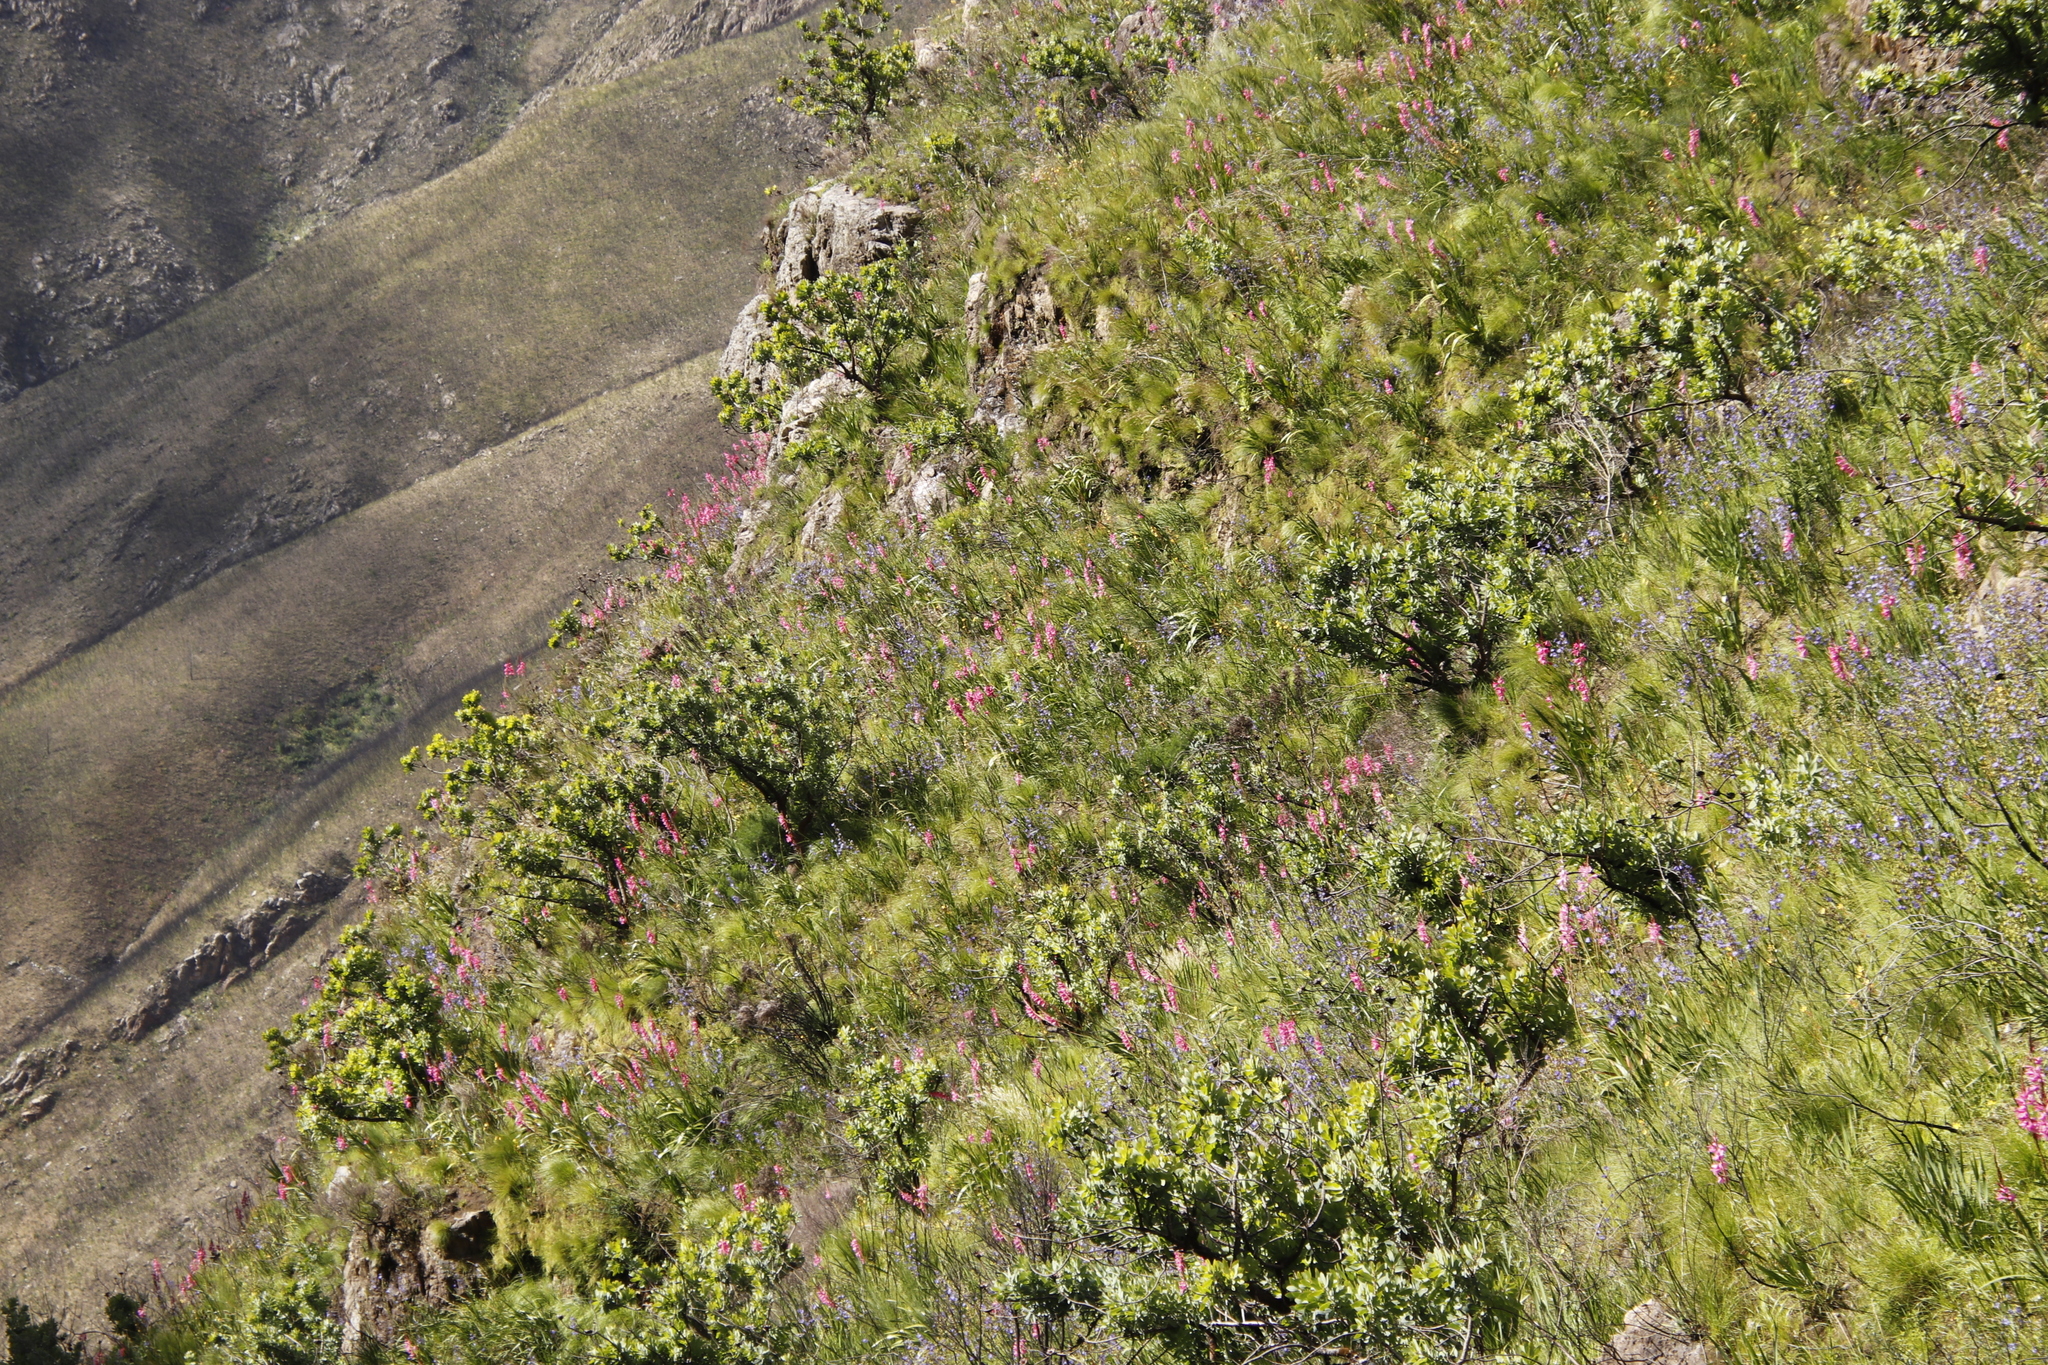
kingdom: Plantae
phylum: Tracheophyta
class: Liliopsida
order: Asparagales
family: Iridaceae
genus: Watsonia
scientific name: Watsonia borbonica
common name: Bugle-lily
